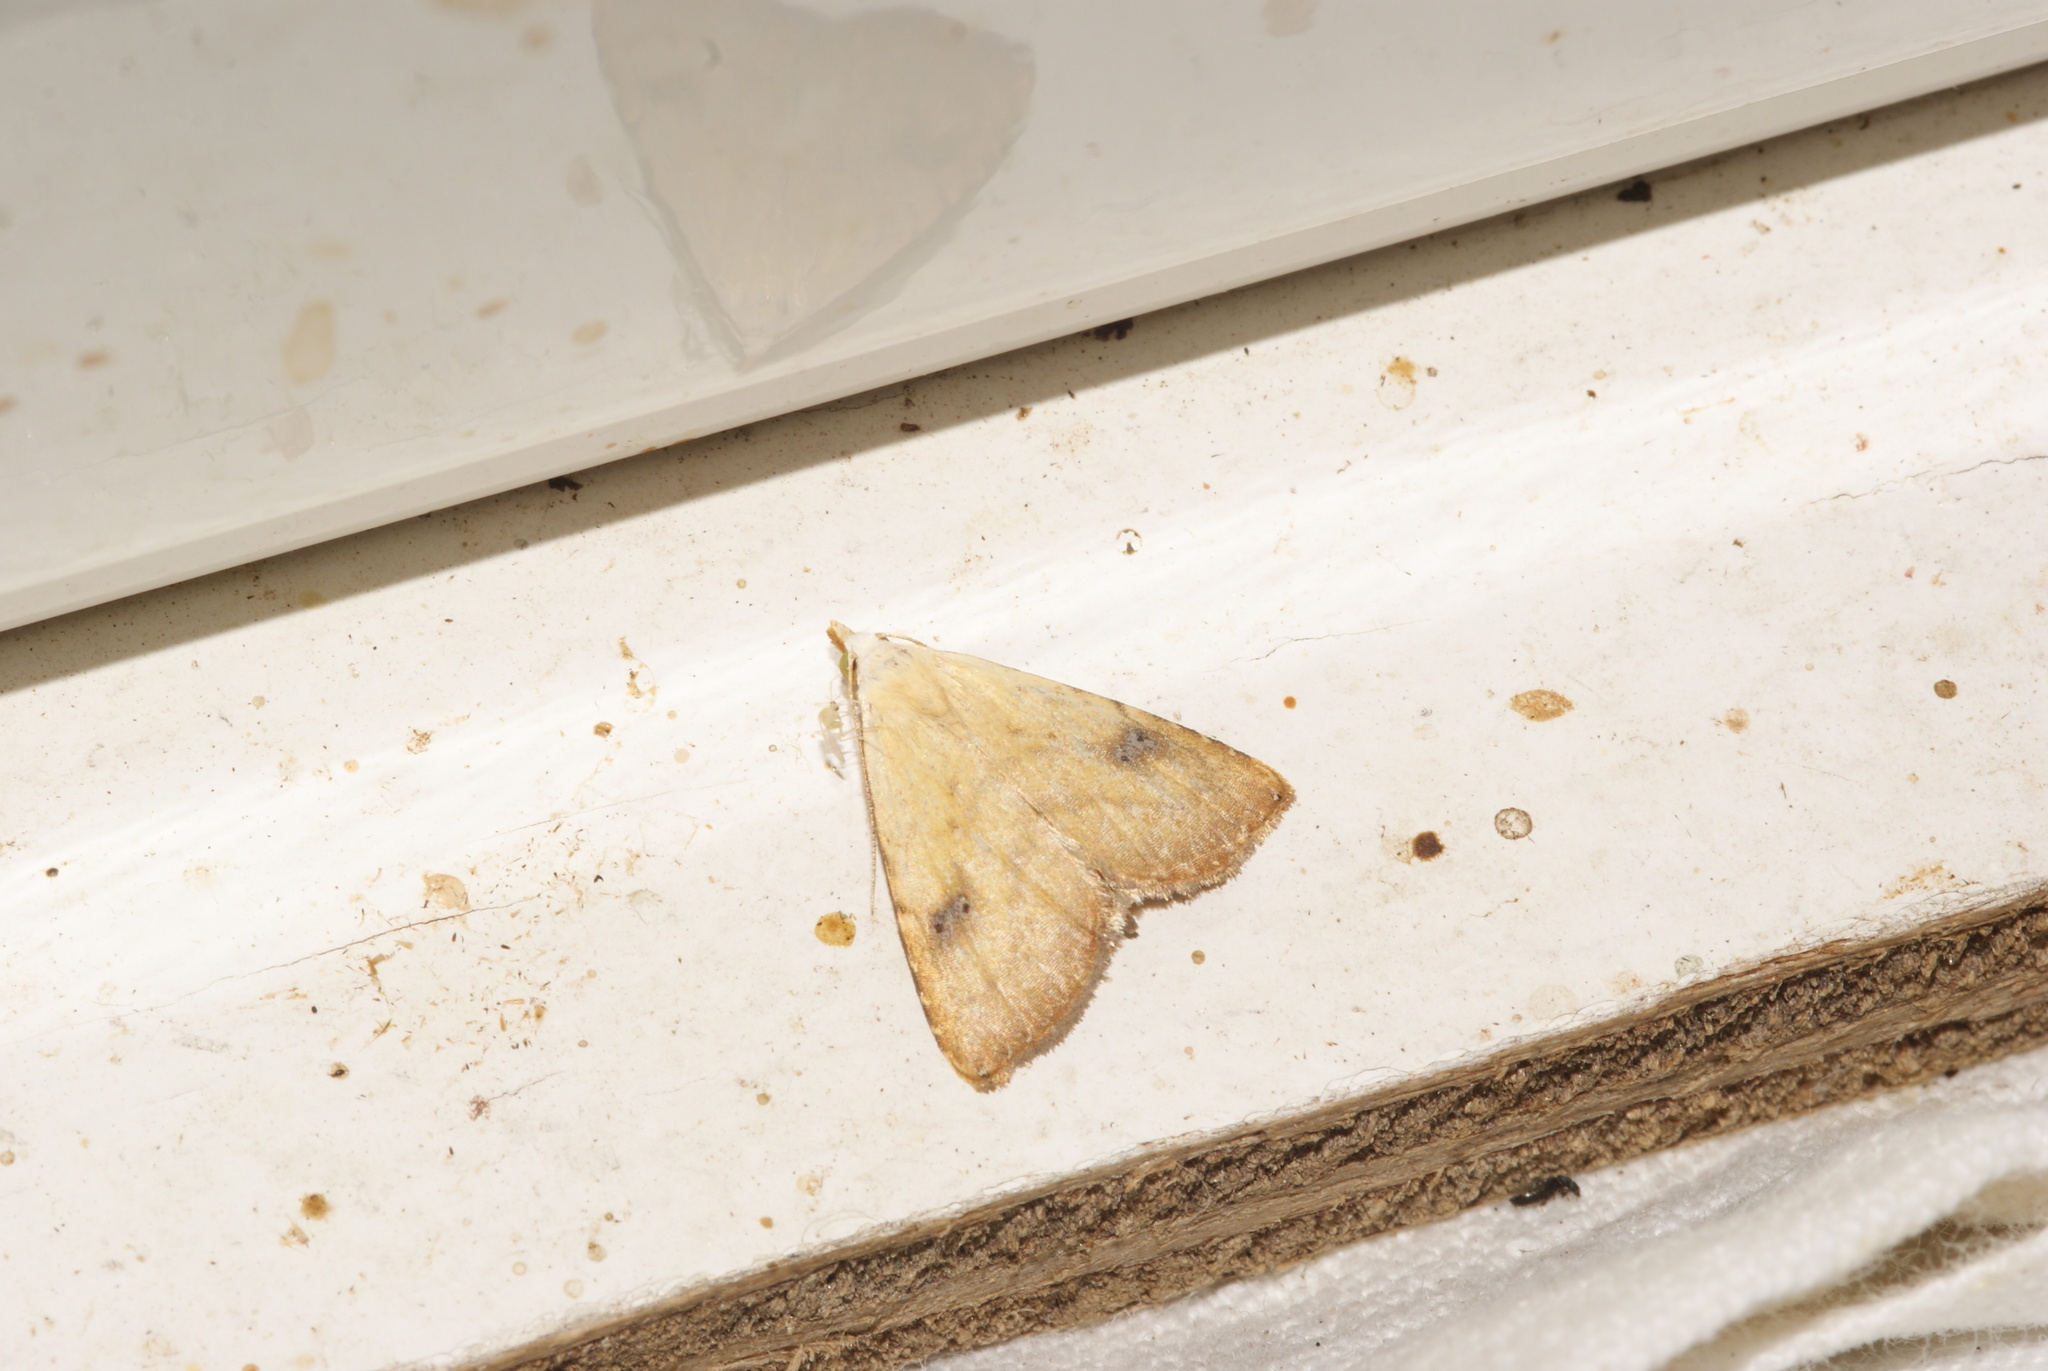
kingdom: Animalia
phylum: Arthropoda
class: Insecta
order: Lepidoptera
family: Erebidae
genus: Rivula
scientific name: Rivula sericealis
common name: Straw dot
